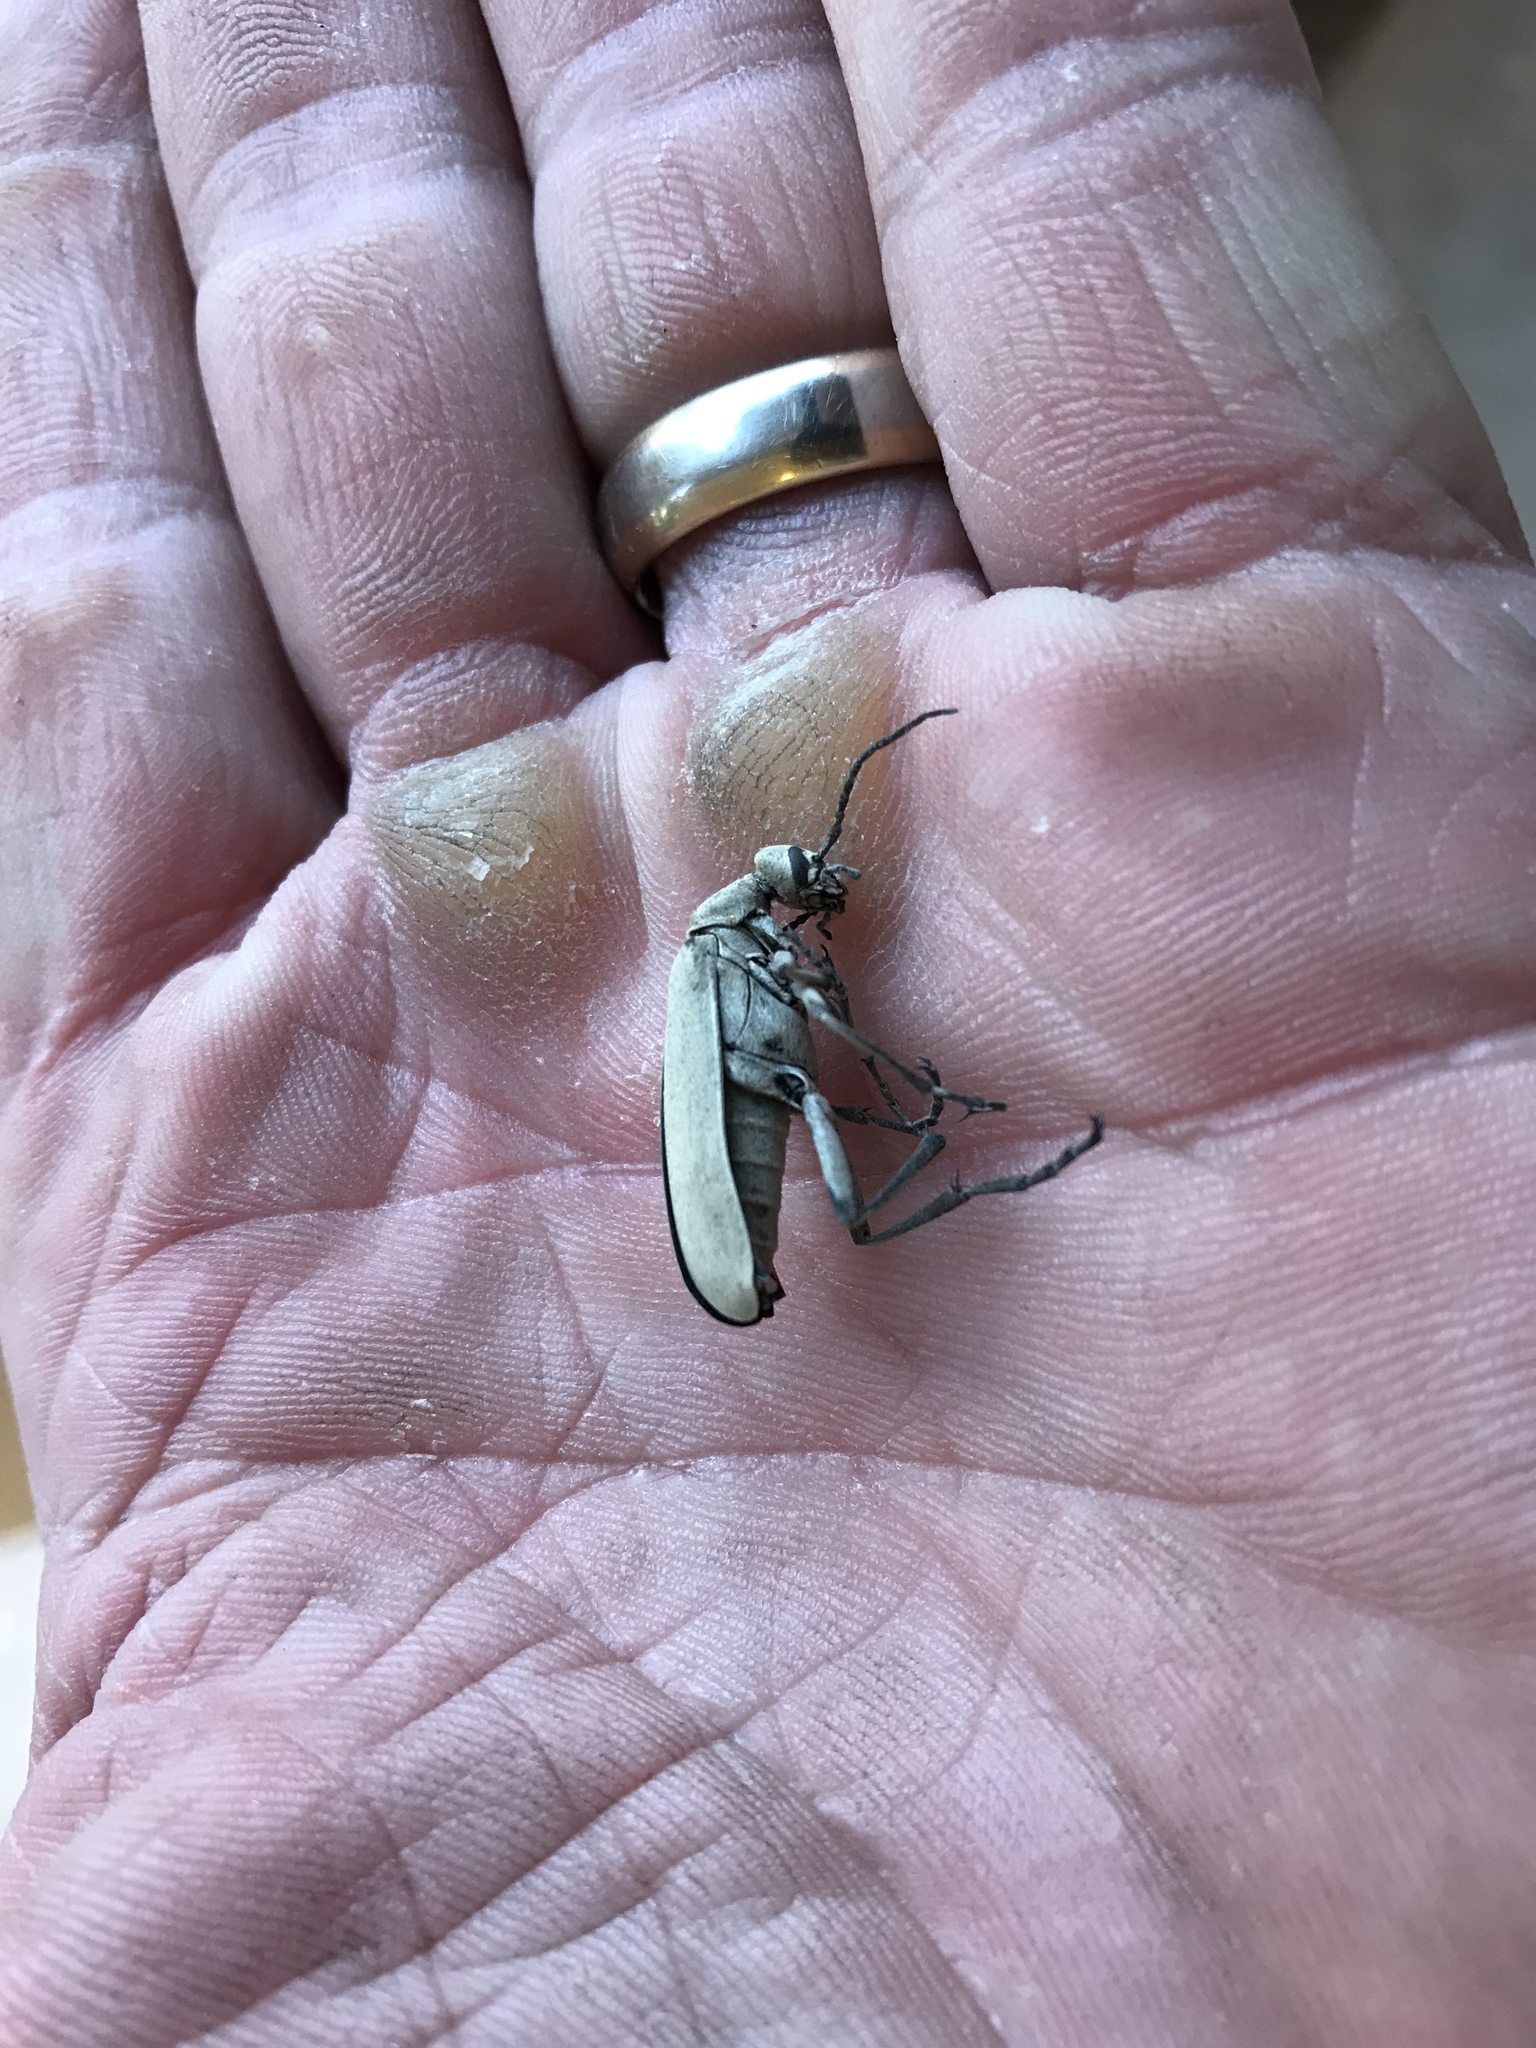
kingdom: Animalia
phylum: Arthropoda
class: Insecta
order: Coleoptera
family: Meloidae
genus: Epicauta
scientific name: Epicauta longicollis
